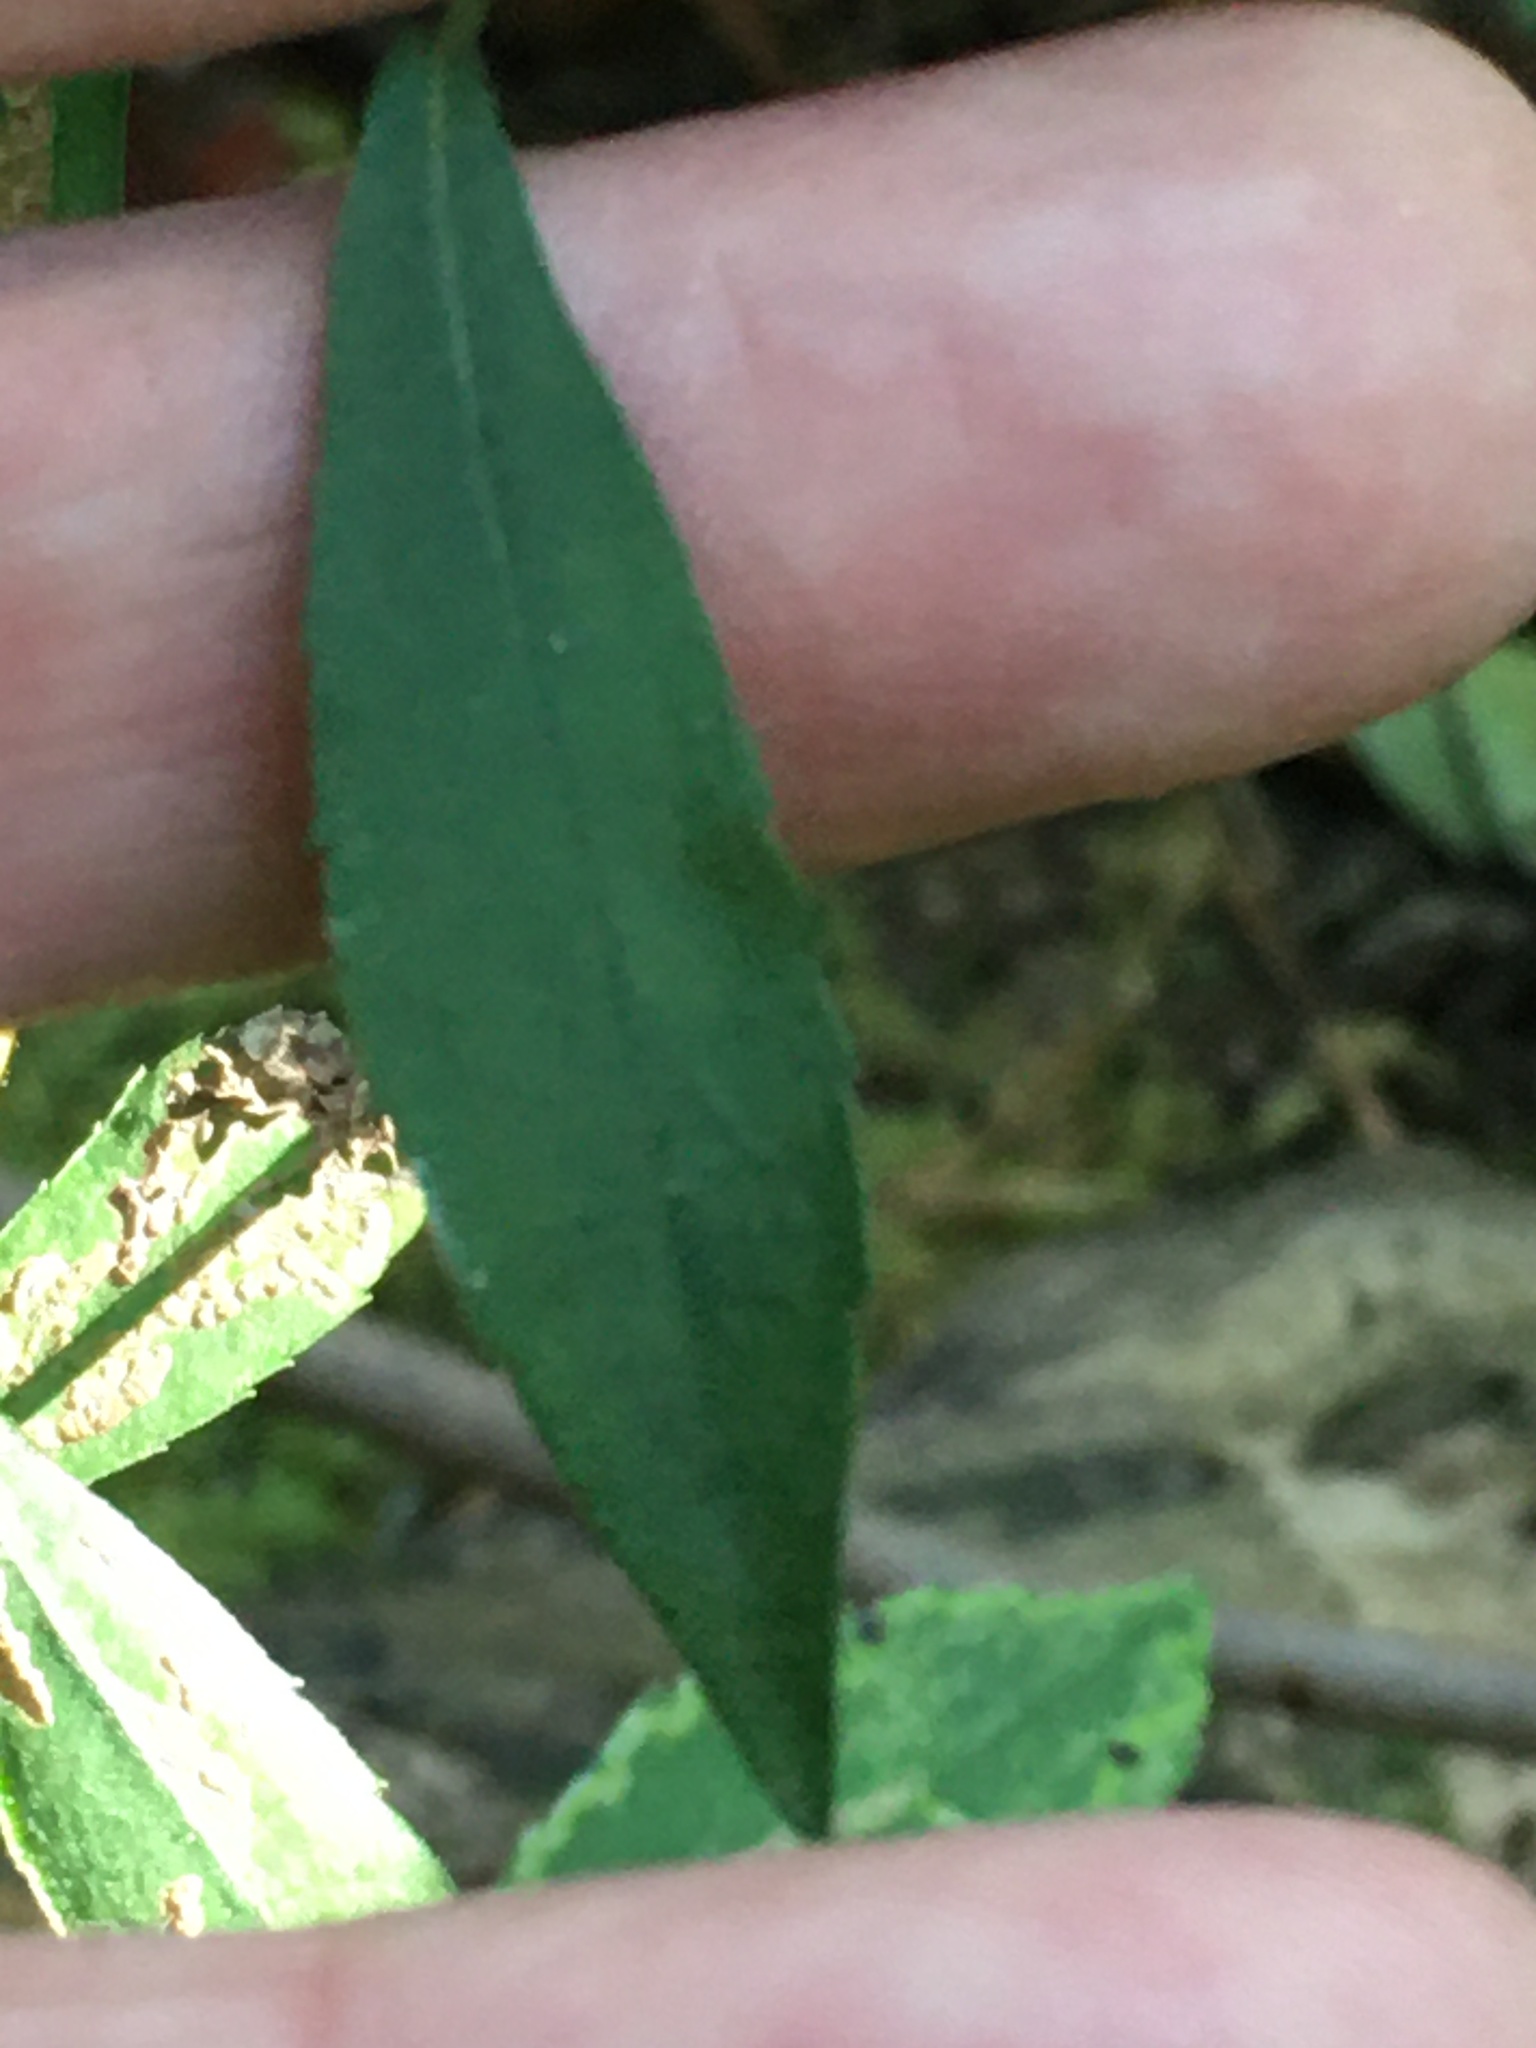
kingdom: Plantae
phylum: Tracheophyta
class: Magnoliopsida
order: Asterales
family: Asteraceae
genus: Symphyotrichum
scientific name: Symphyotrichum racemosum
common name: Small white aster
